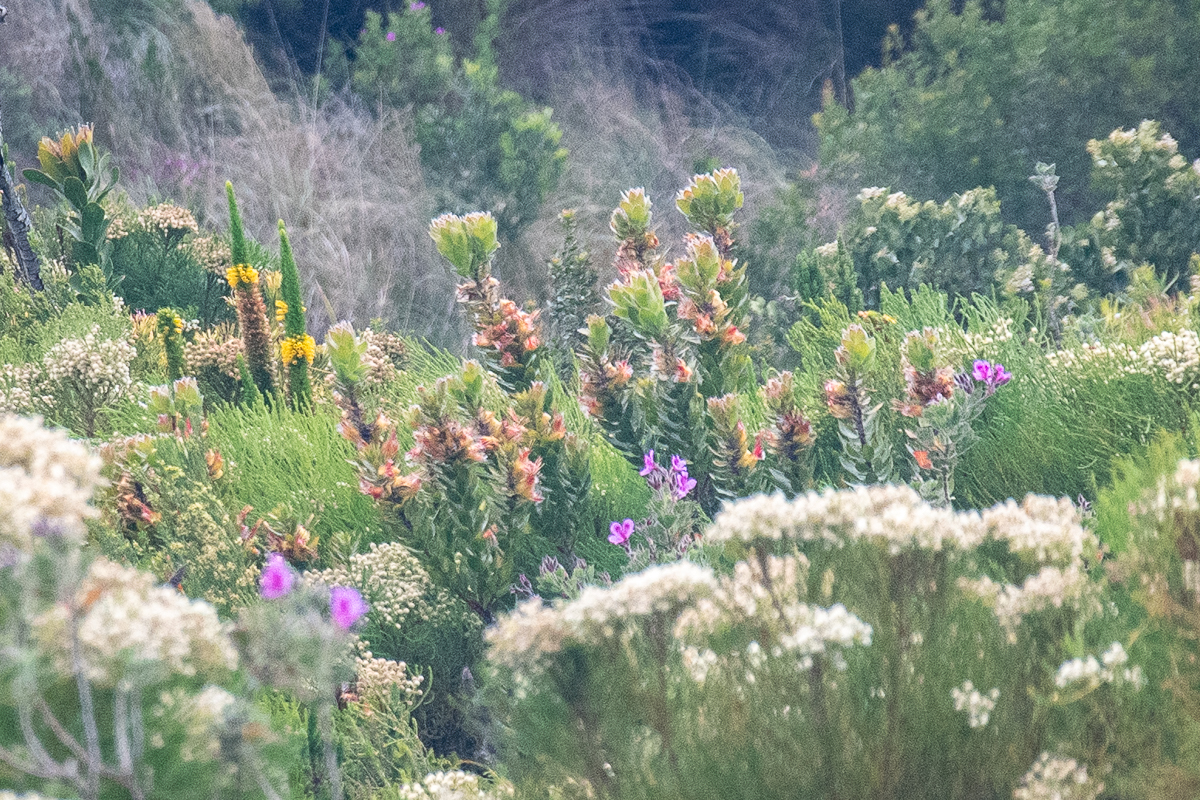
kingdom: Plantae
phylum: Tracheophyta
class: Magnoliopsida
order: Proteales
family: Proteaceae
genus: Mimetes
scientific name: Mimetes hirtus
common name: Marsh pagoda
